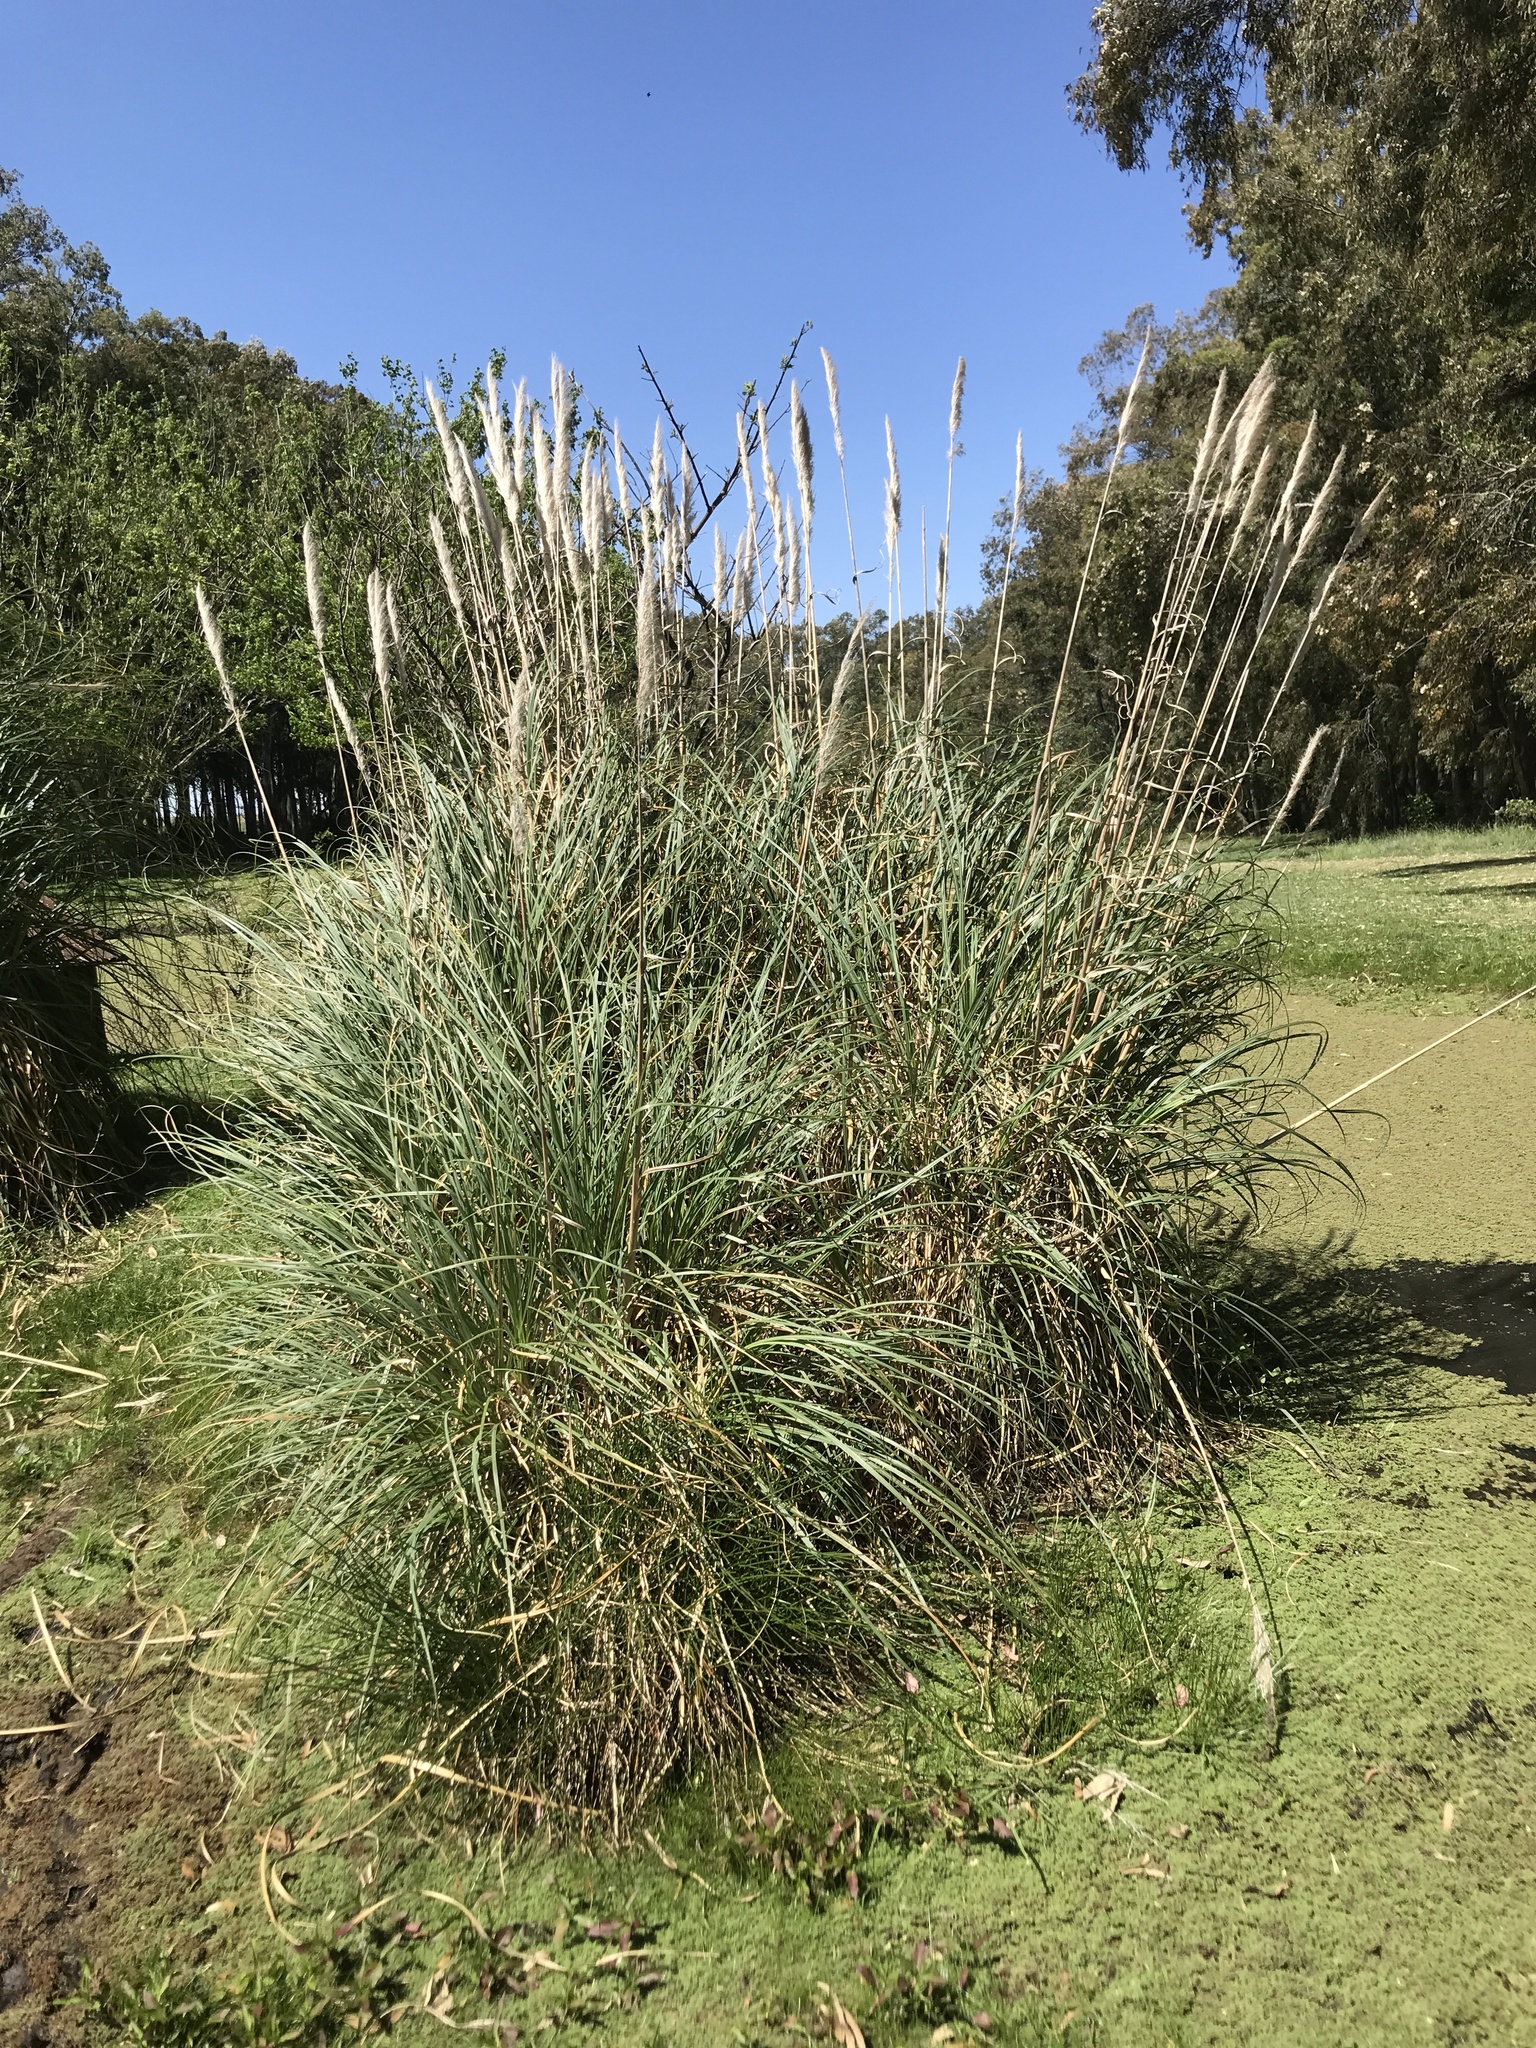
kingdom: Plantae
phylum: Tracheophyta
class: Liliopsida
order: Poales
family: Poaceae
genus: Cortaderia
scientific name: Cortaderia selloana
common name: Uruguayan pampas grass
